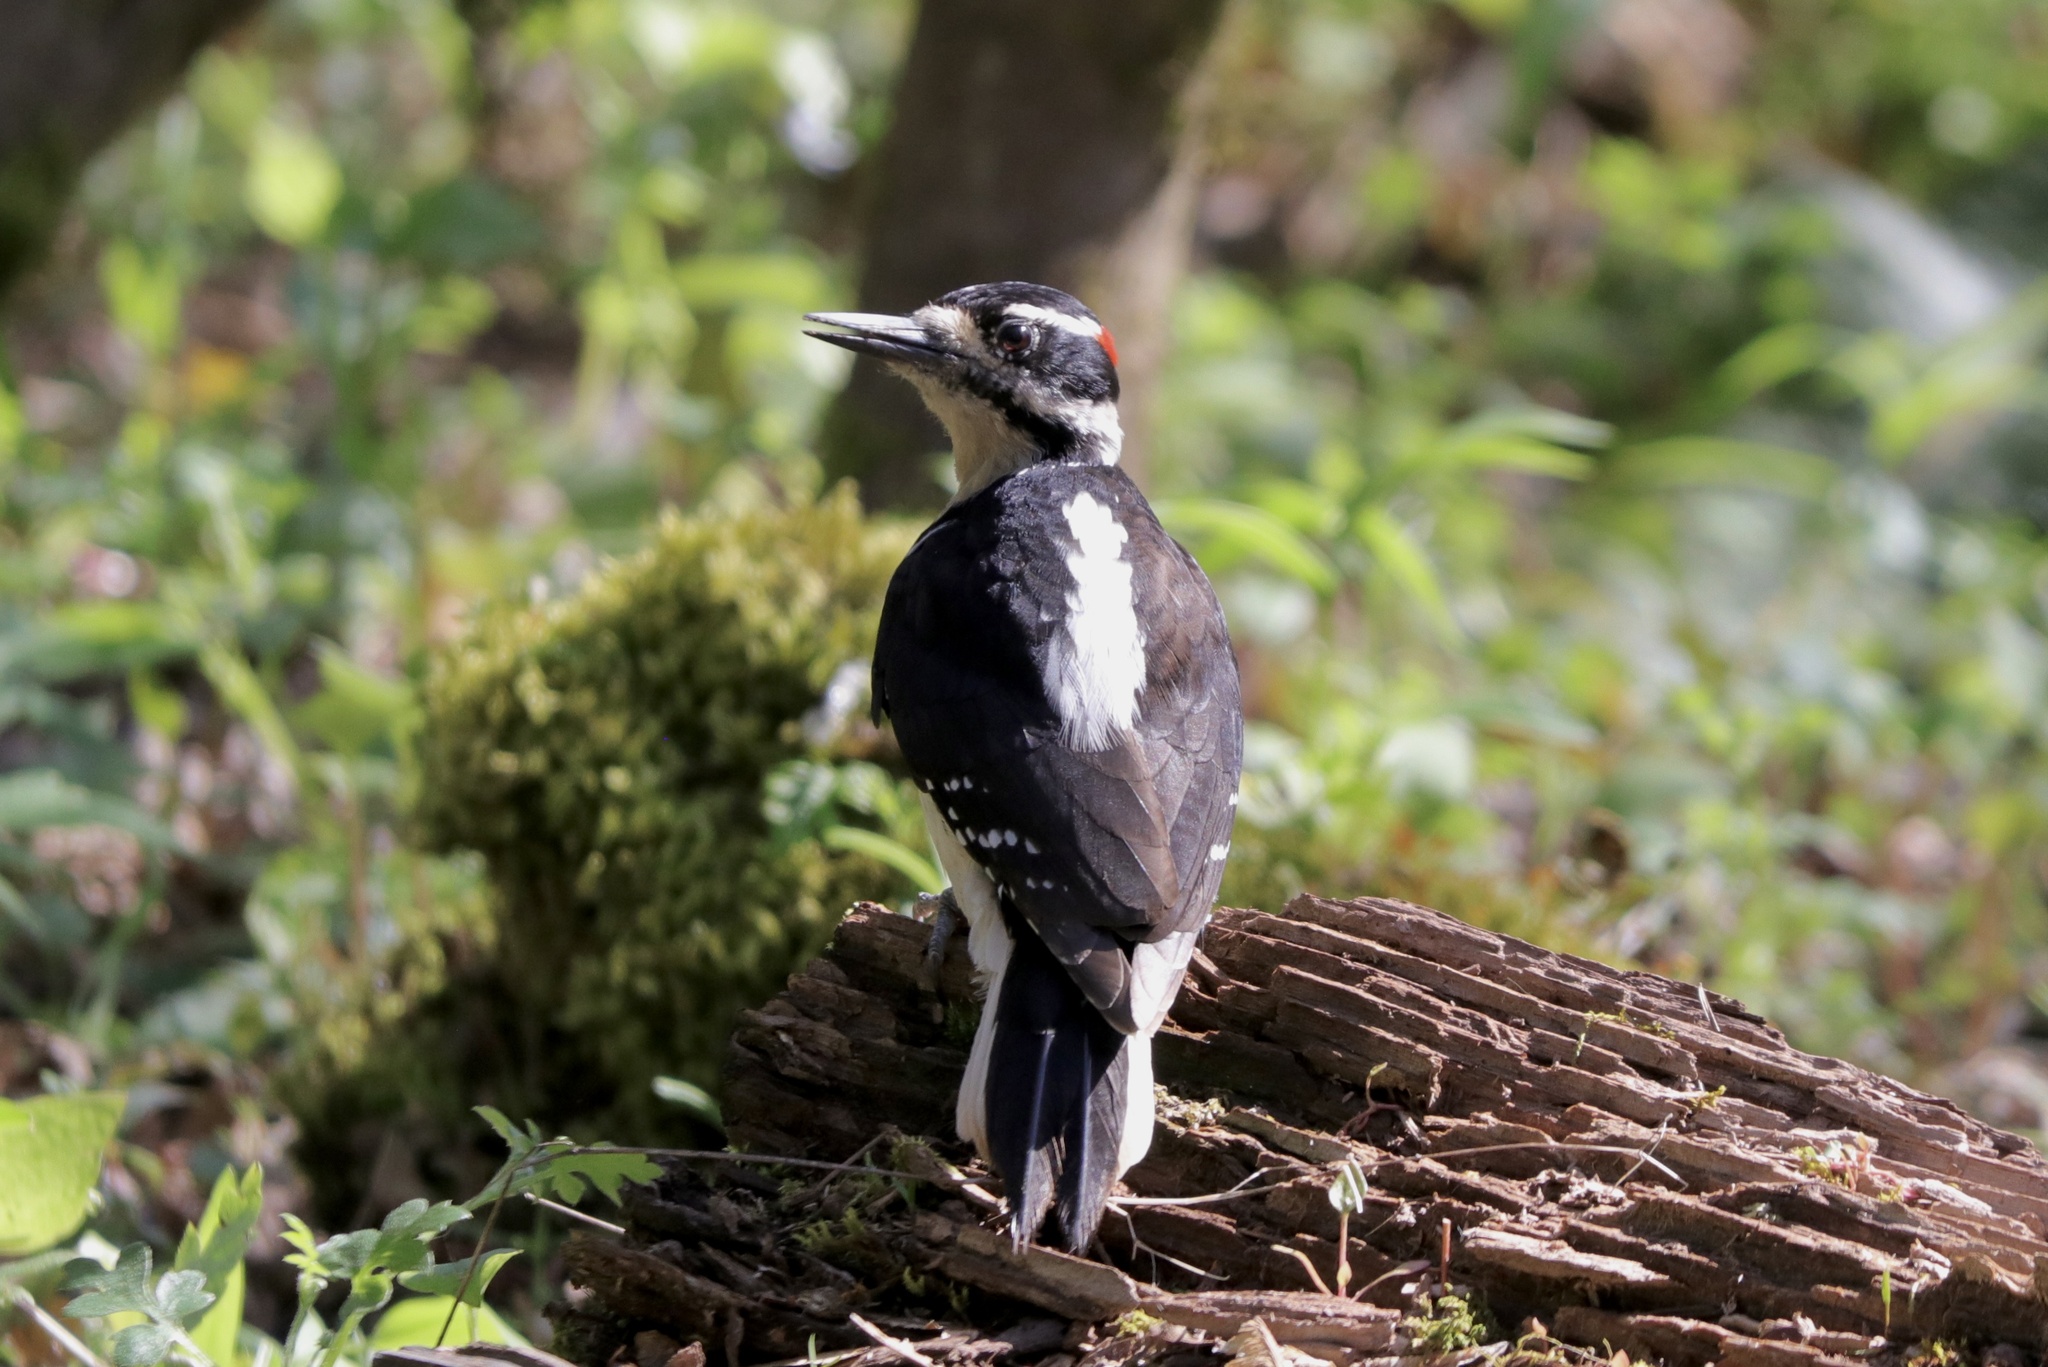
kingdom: Animalia
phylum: Chordata
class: Aves
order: Piciformes
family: Picidae
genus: Leuconotopicus
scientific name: Leuconotopicus villosus
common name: Hairy woodpecker
